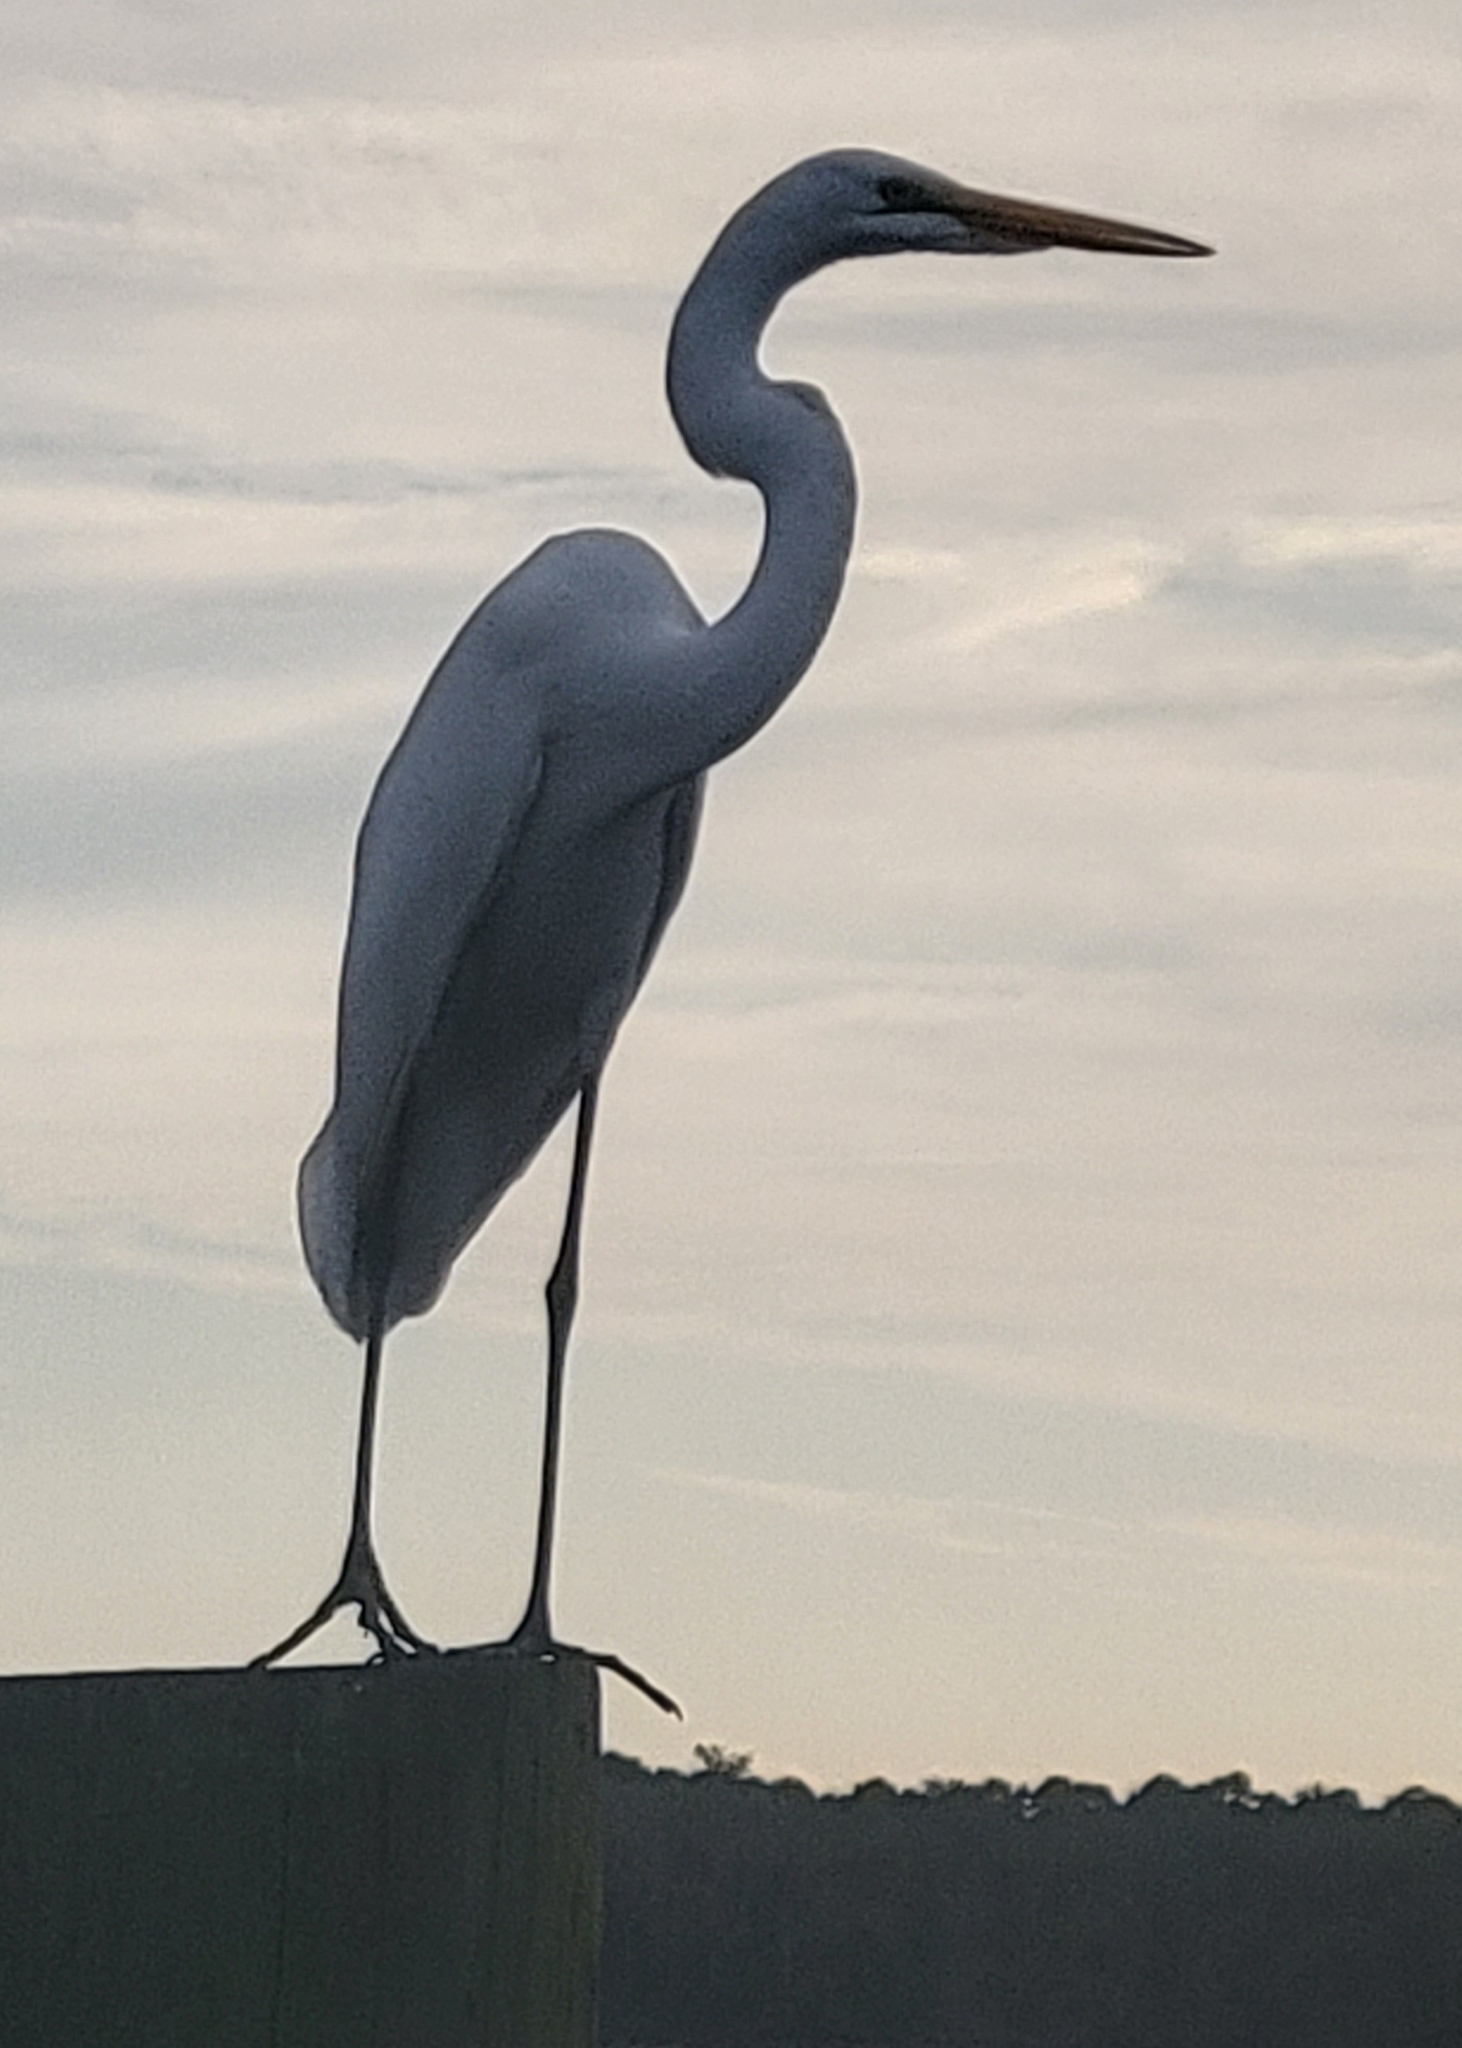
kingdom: Animalia
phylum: Chordata
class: Aves
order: Pelecaniformes
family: Ardeidae
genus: Ardea
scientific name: Ardea alba
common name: Great egret
